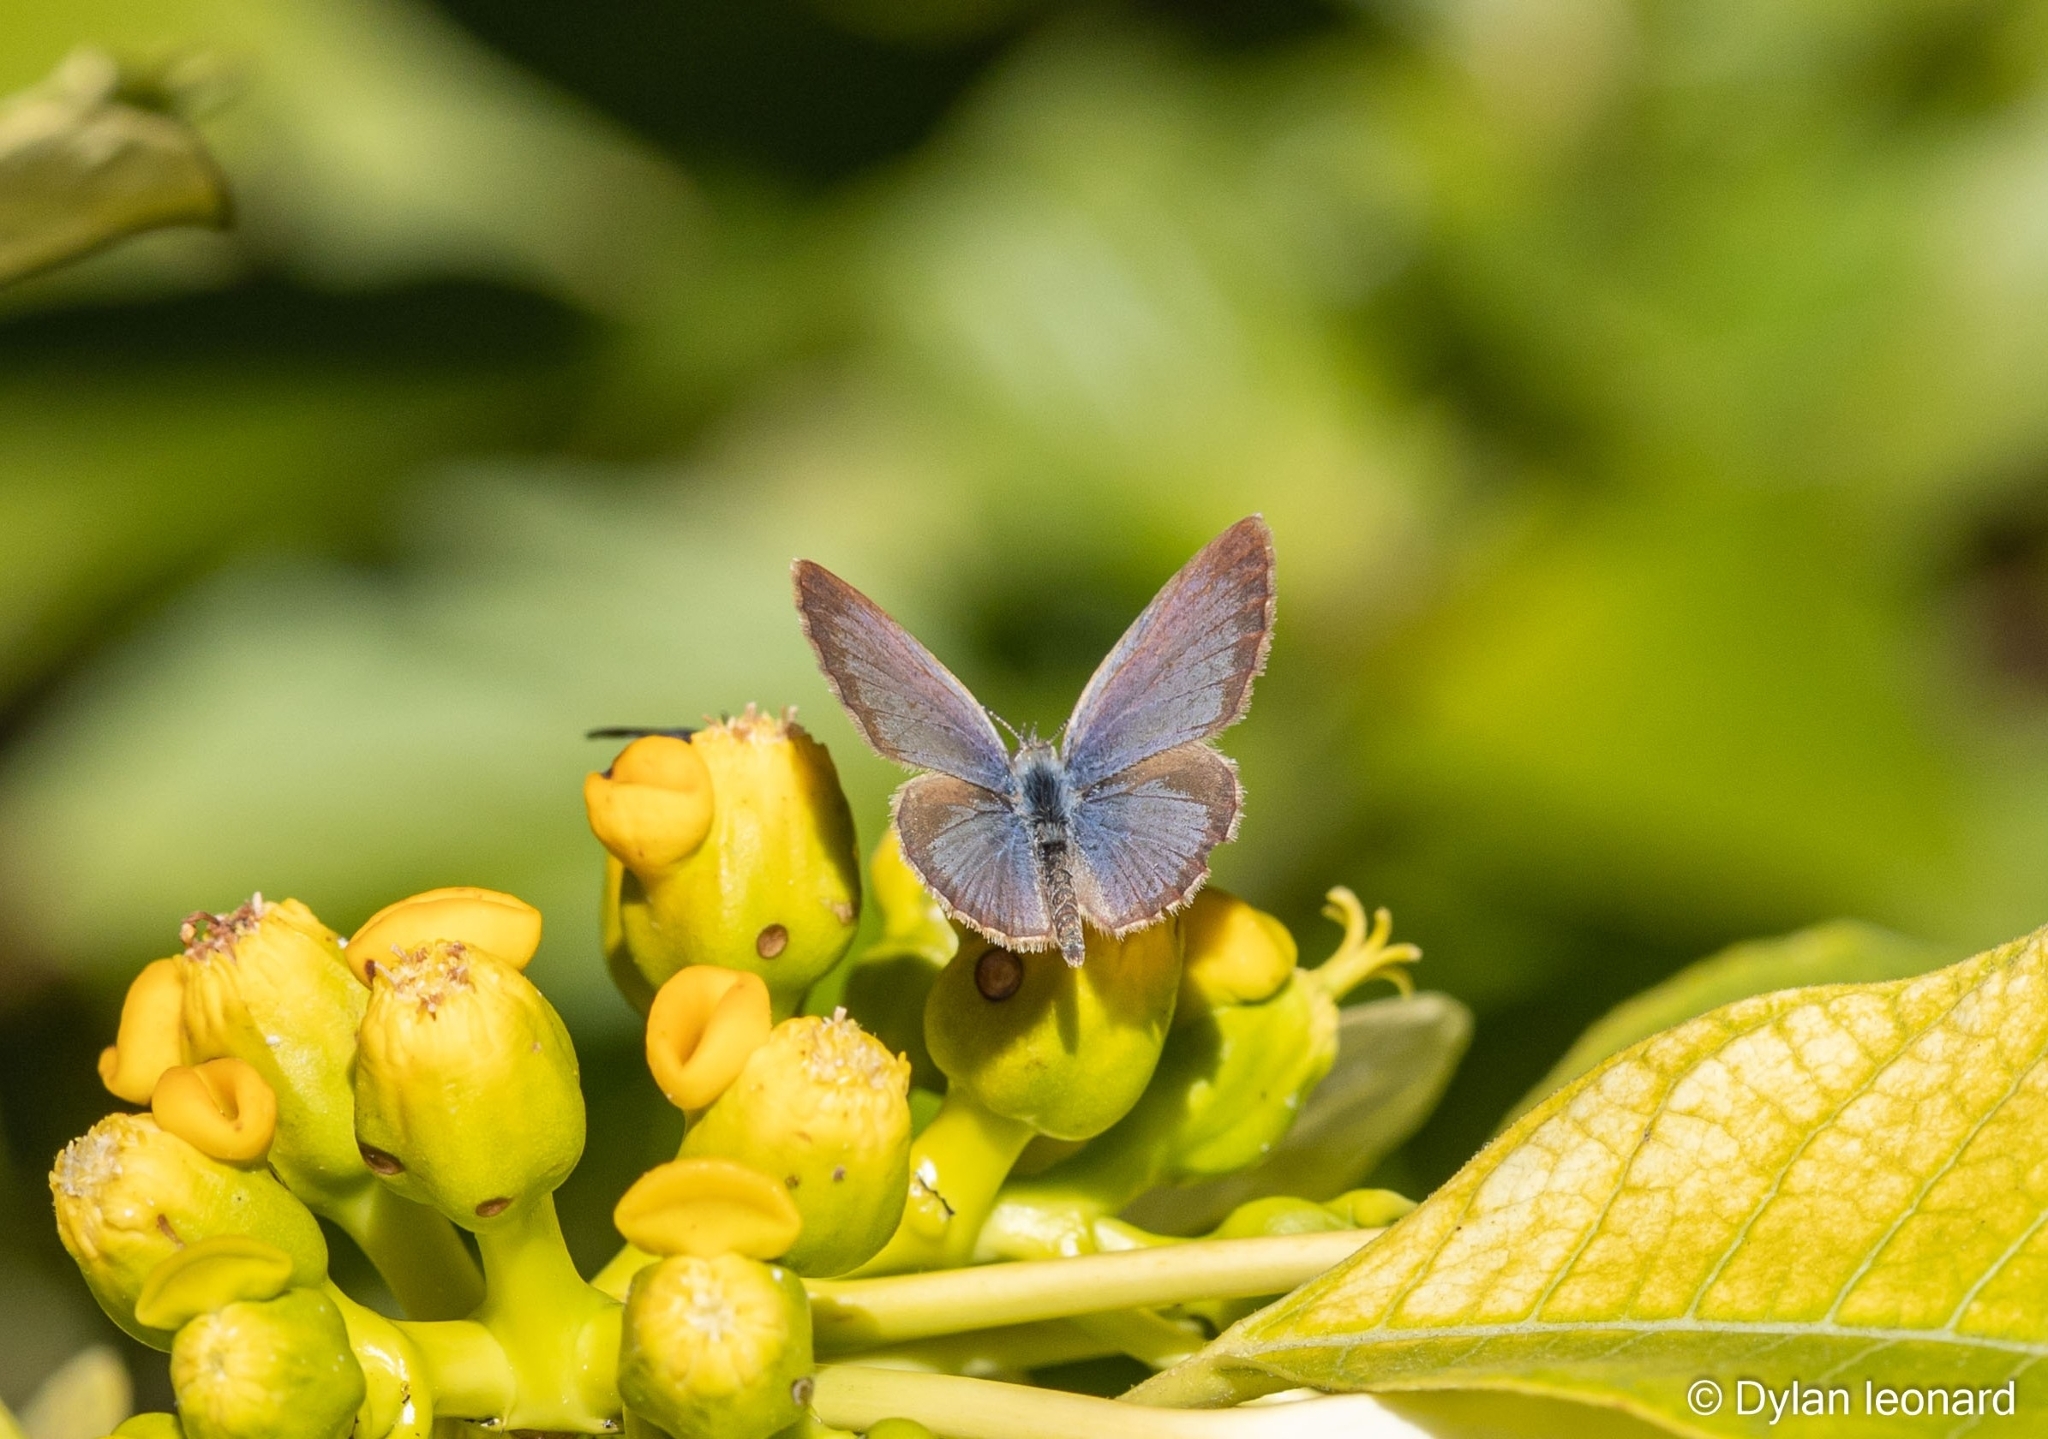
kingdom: Animalia
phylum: Arthropoda
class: Insecta
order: Lepidoptera
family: Lycaenidae
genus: Zizula
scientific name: Zizula hylax
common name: Gaika blue
